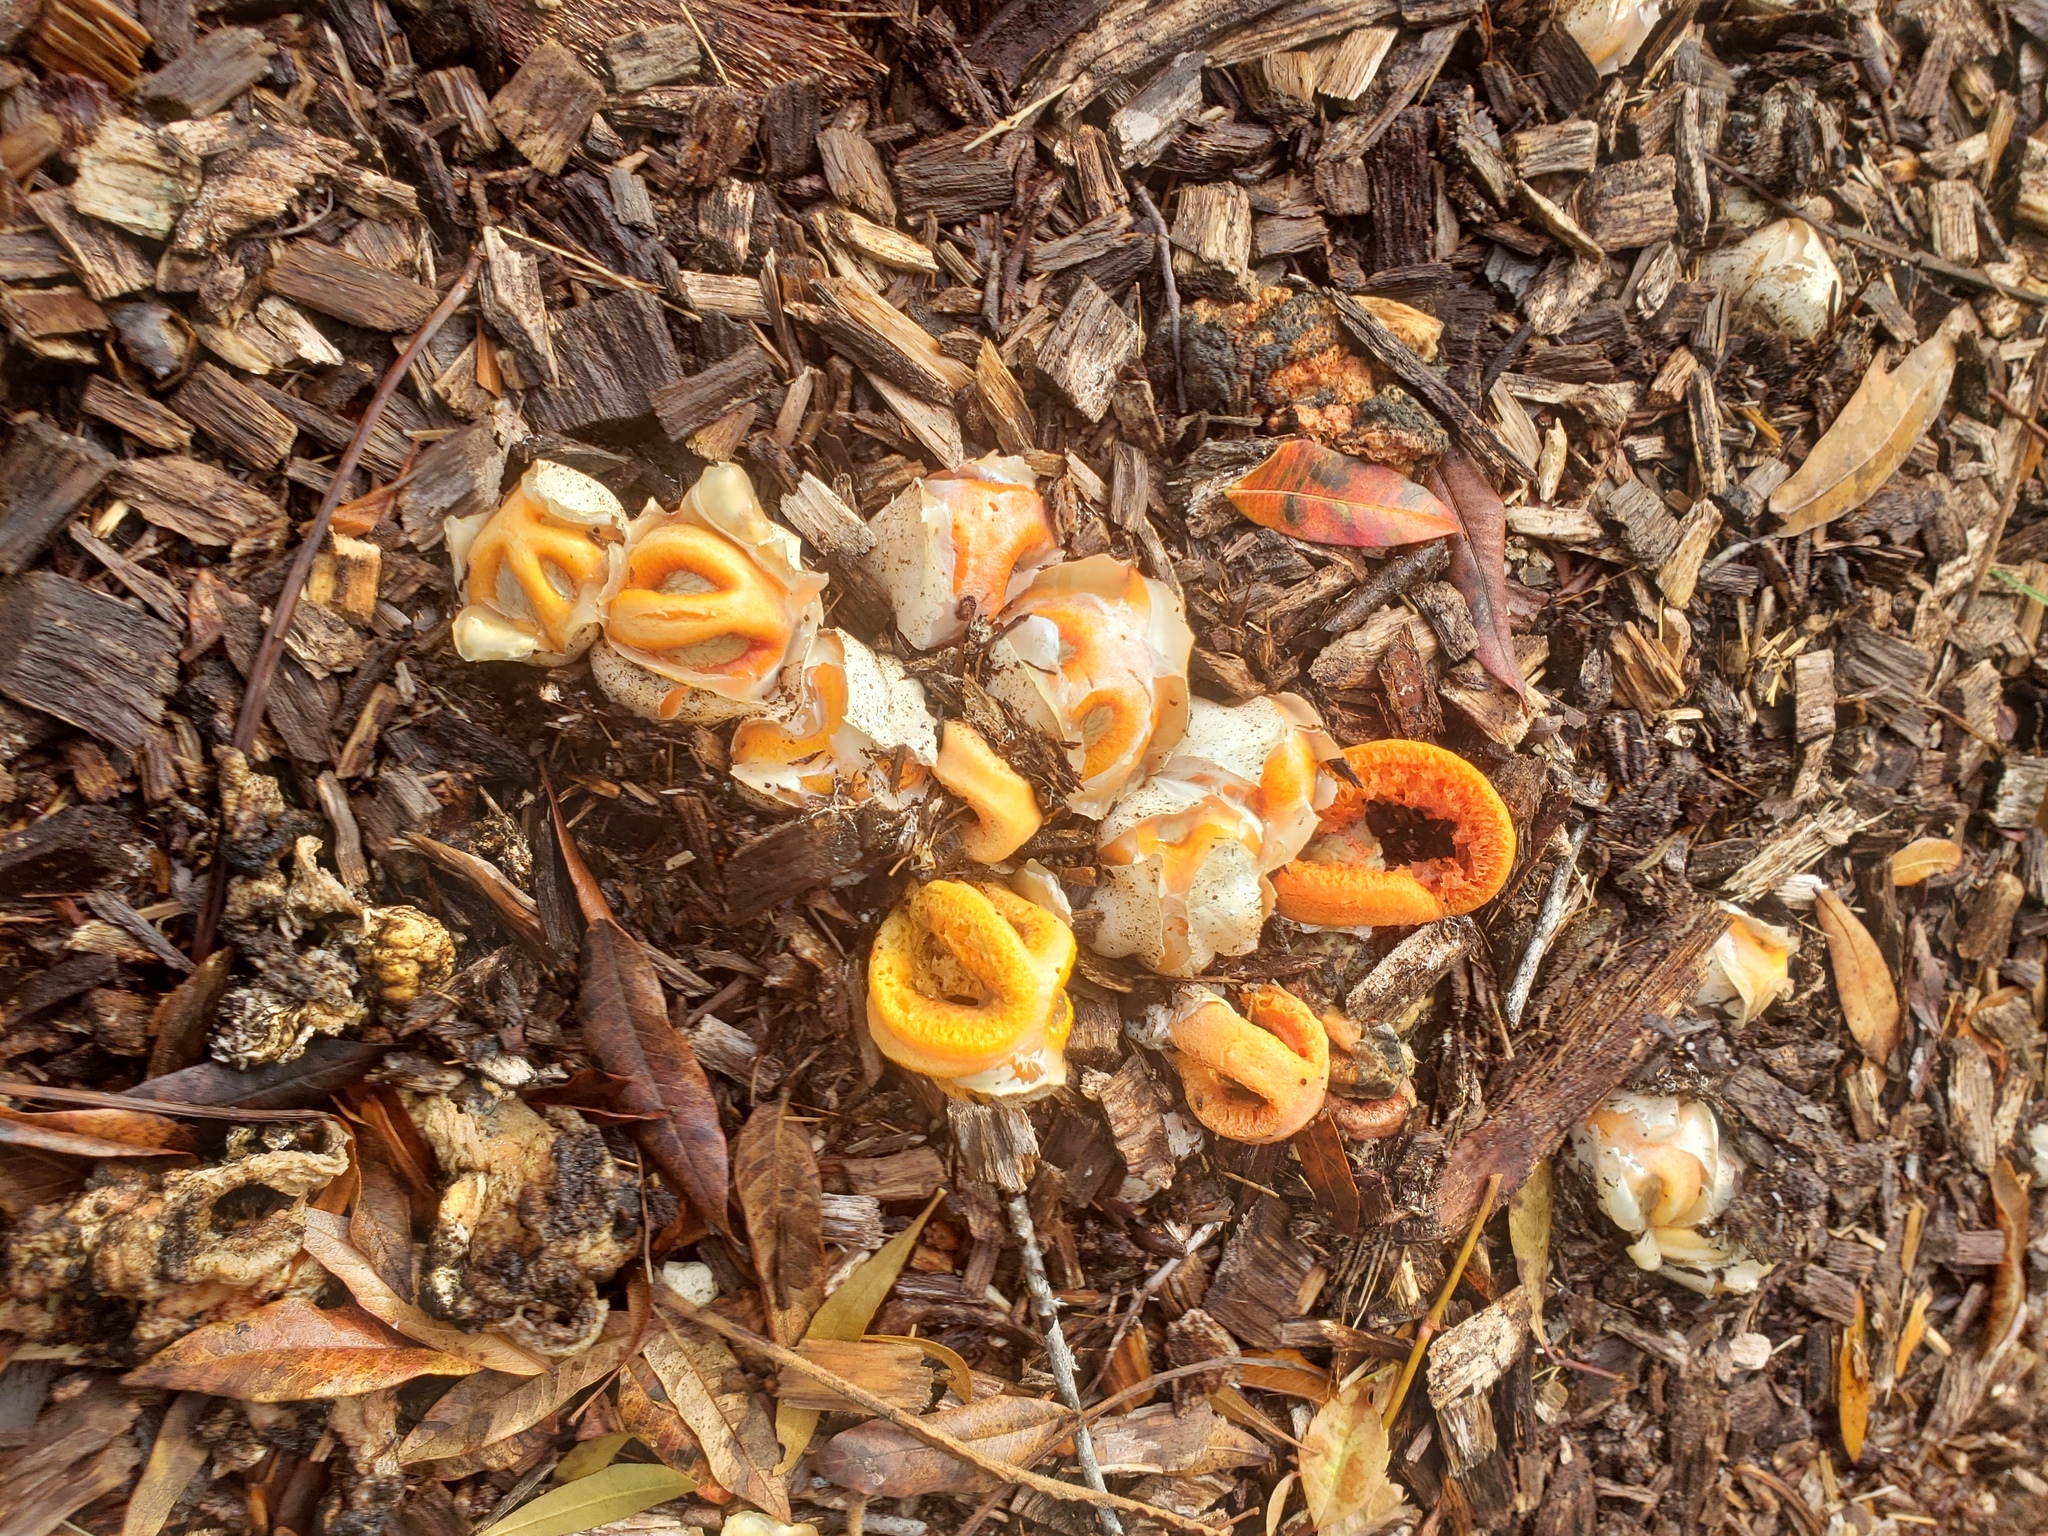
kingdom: Fungi
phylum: Basidiomycota
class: Agaricomycetes
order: Phallales
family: Phallaceae
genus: Clathrus
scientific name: Clathrus columnatus
